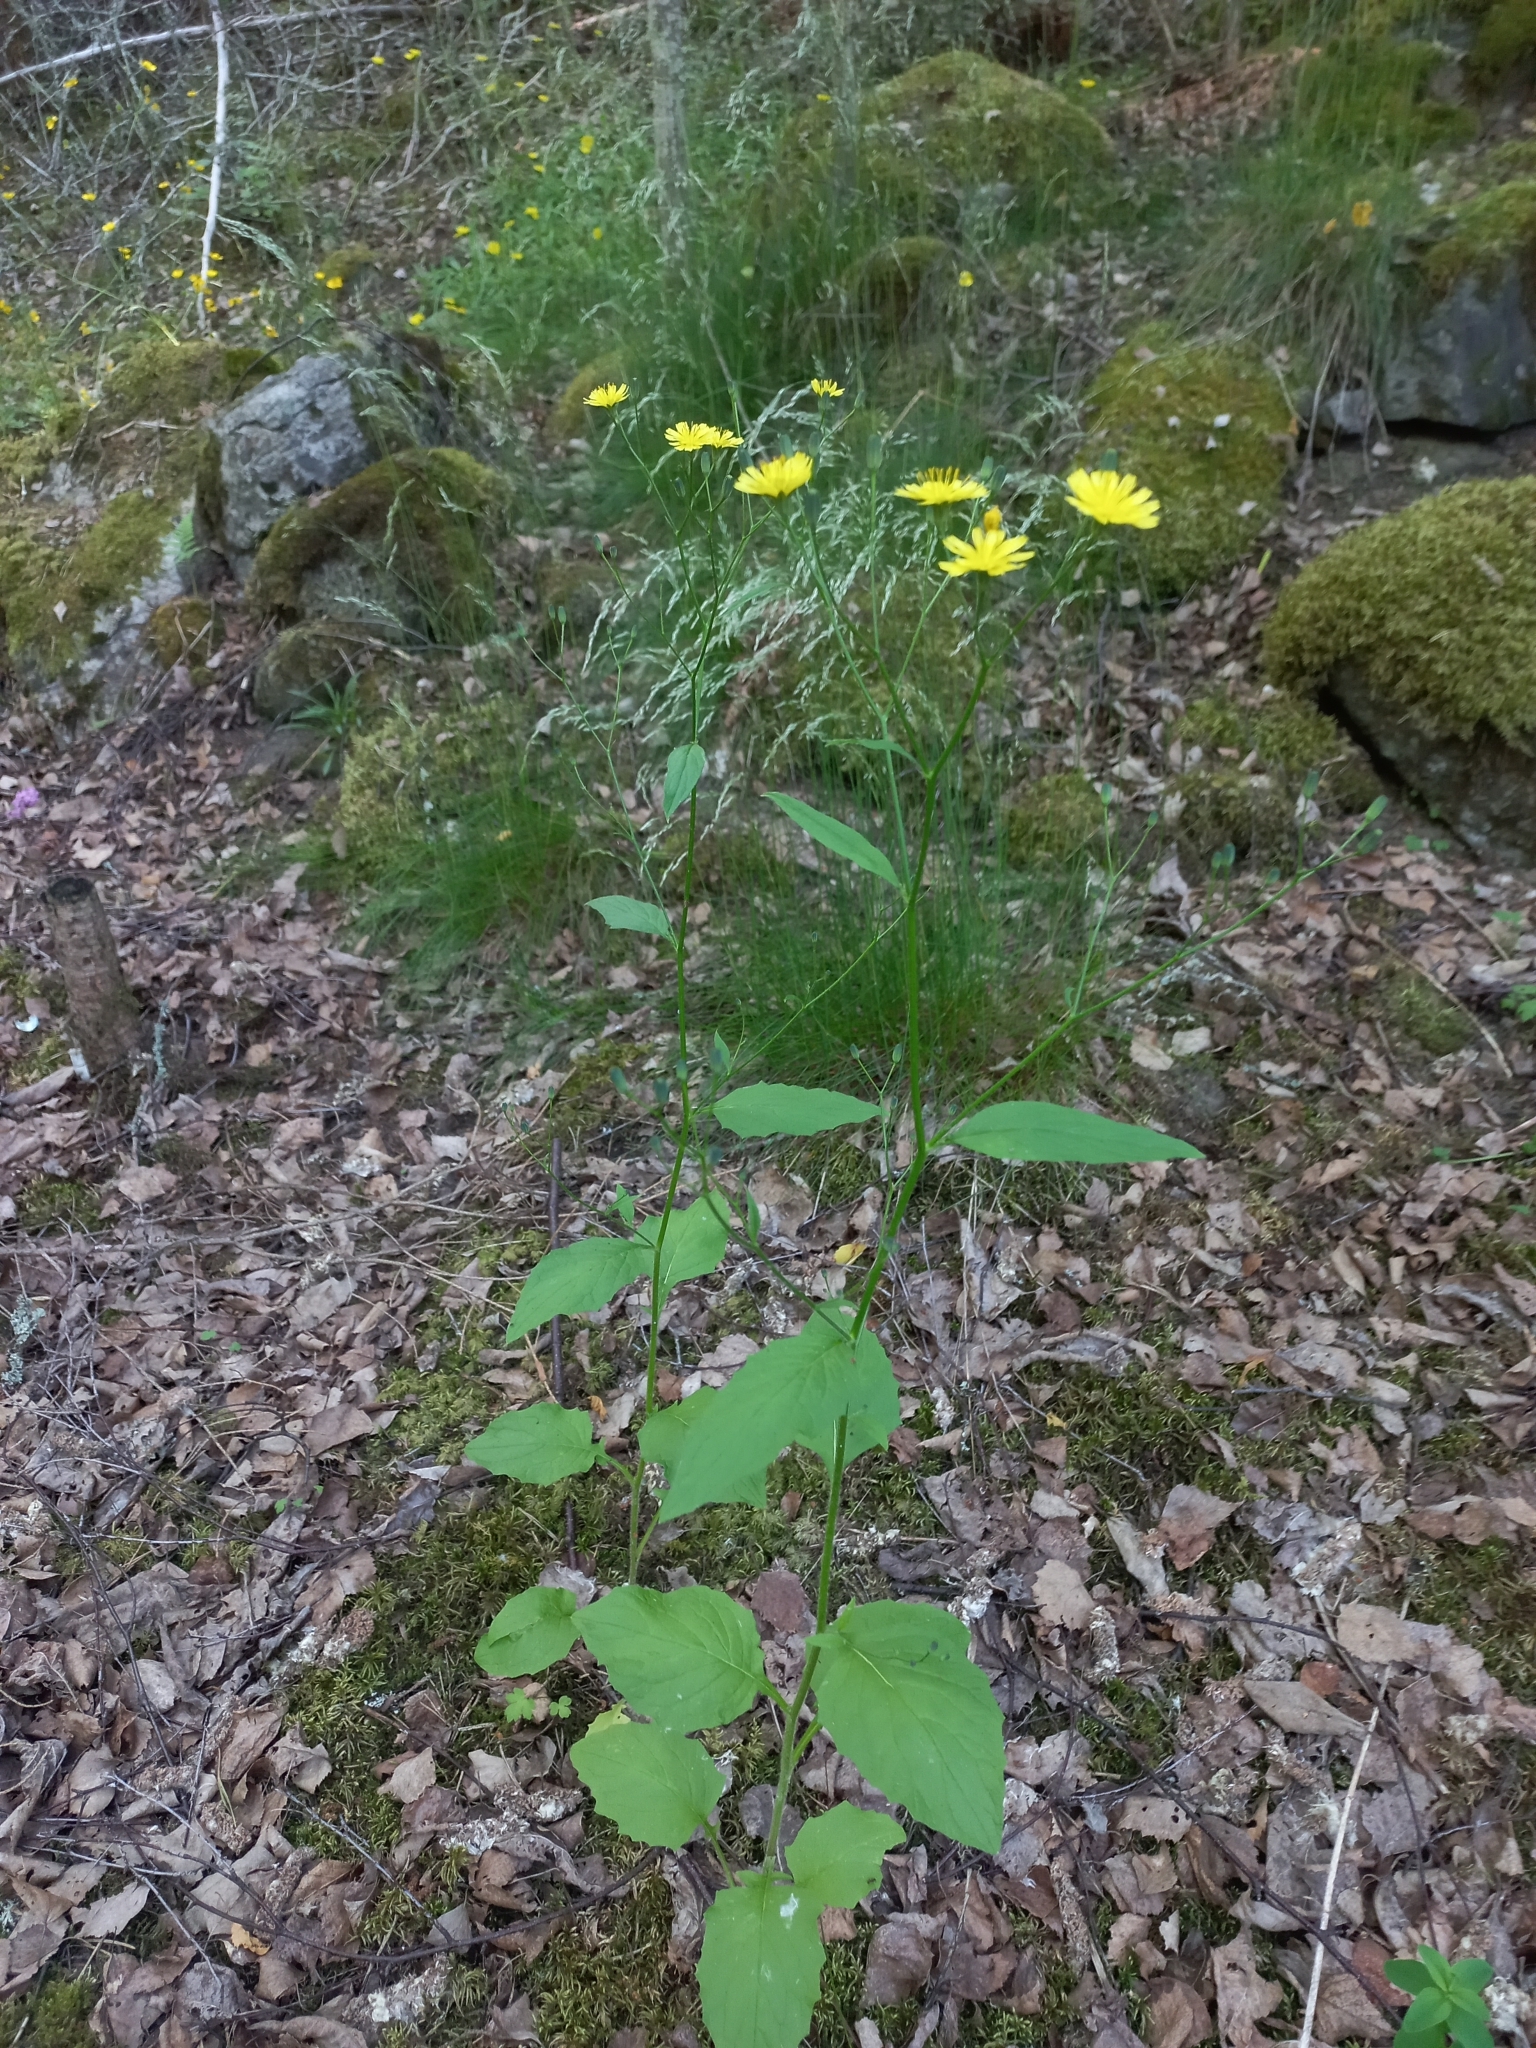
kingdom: Plantae
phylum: Tracheophyta
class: Magnoliopsida
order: Asterales
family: Asteraceae
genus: Lapsana
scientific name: Lapsana communis
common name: Nipplewort
